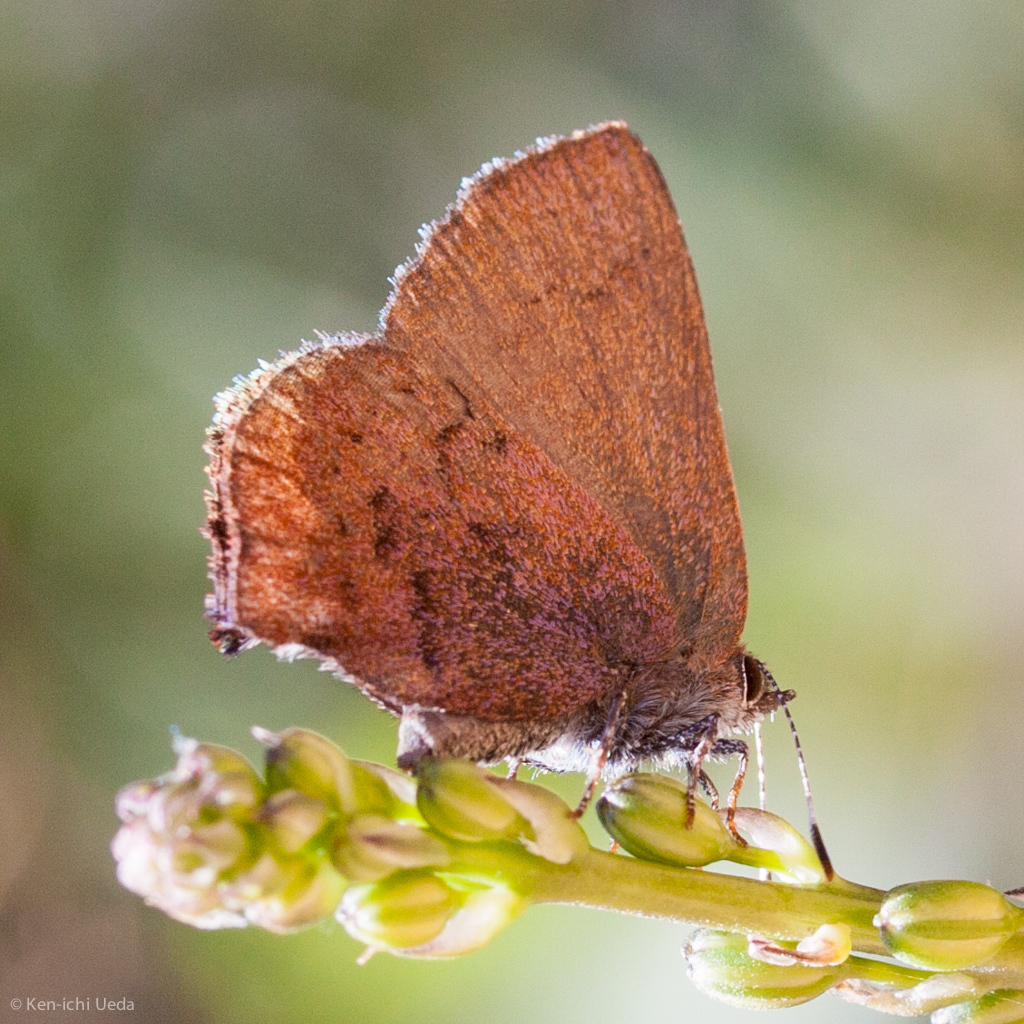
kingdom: Animalia
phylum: Arthropoda
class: Insecta
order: Lepidoptera
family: Lycaenidae
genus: Incisalia
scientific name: Incisalia irioides
